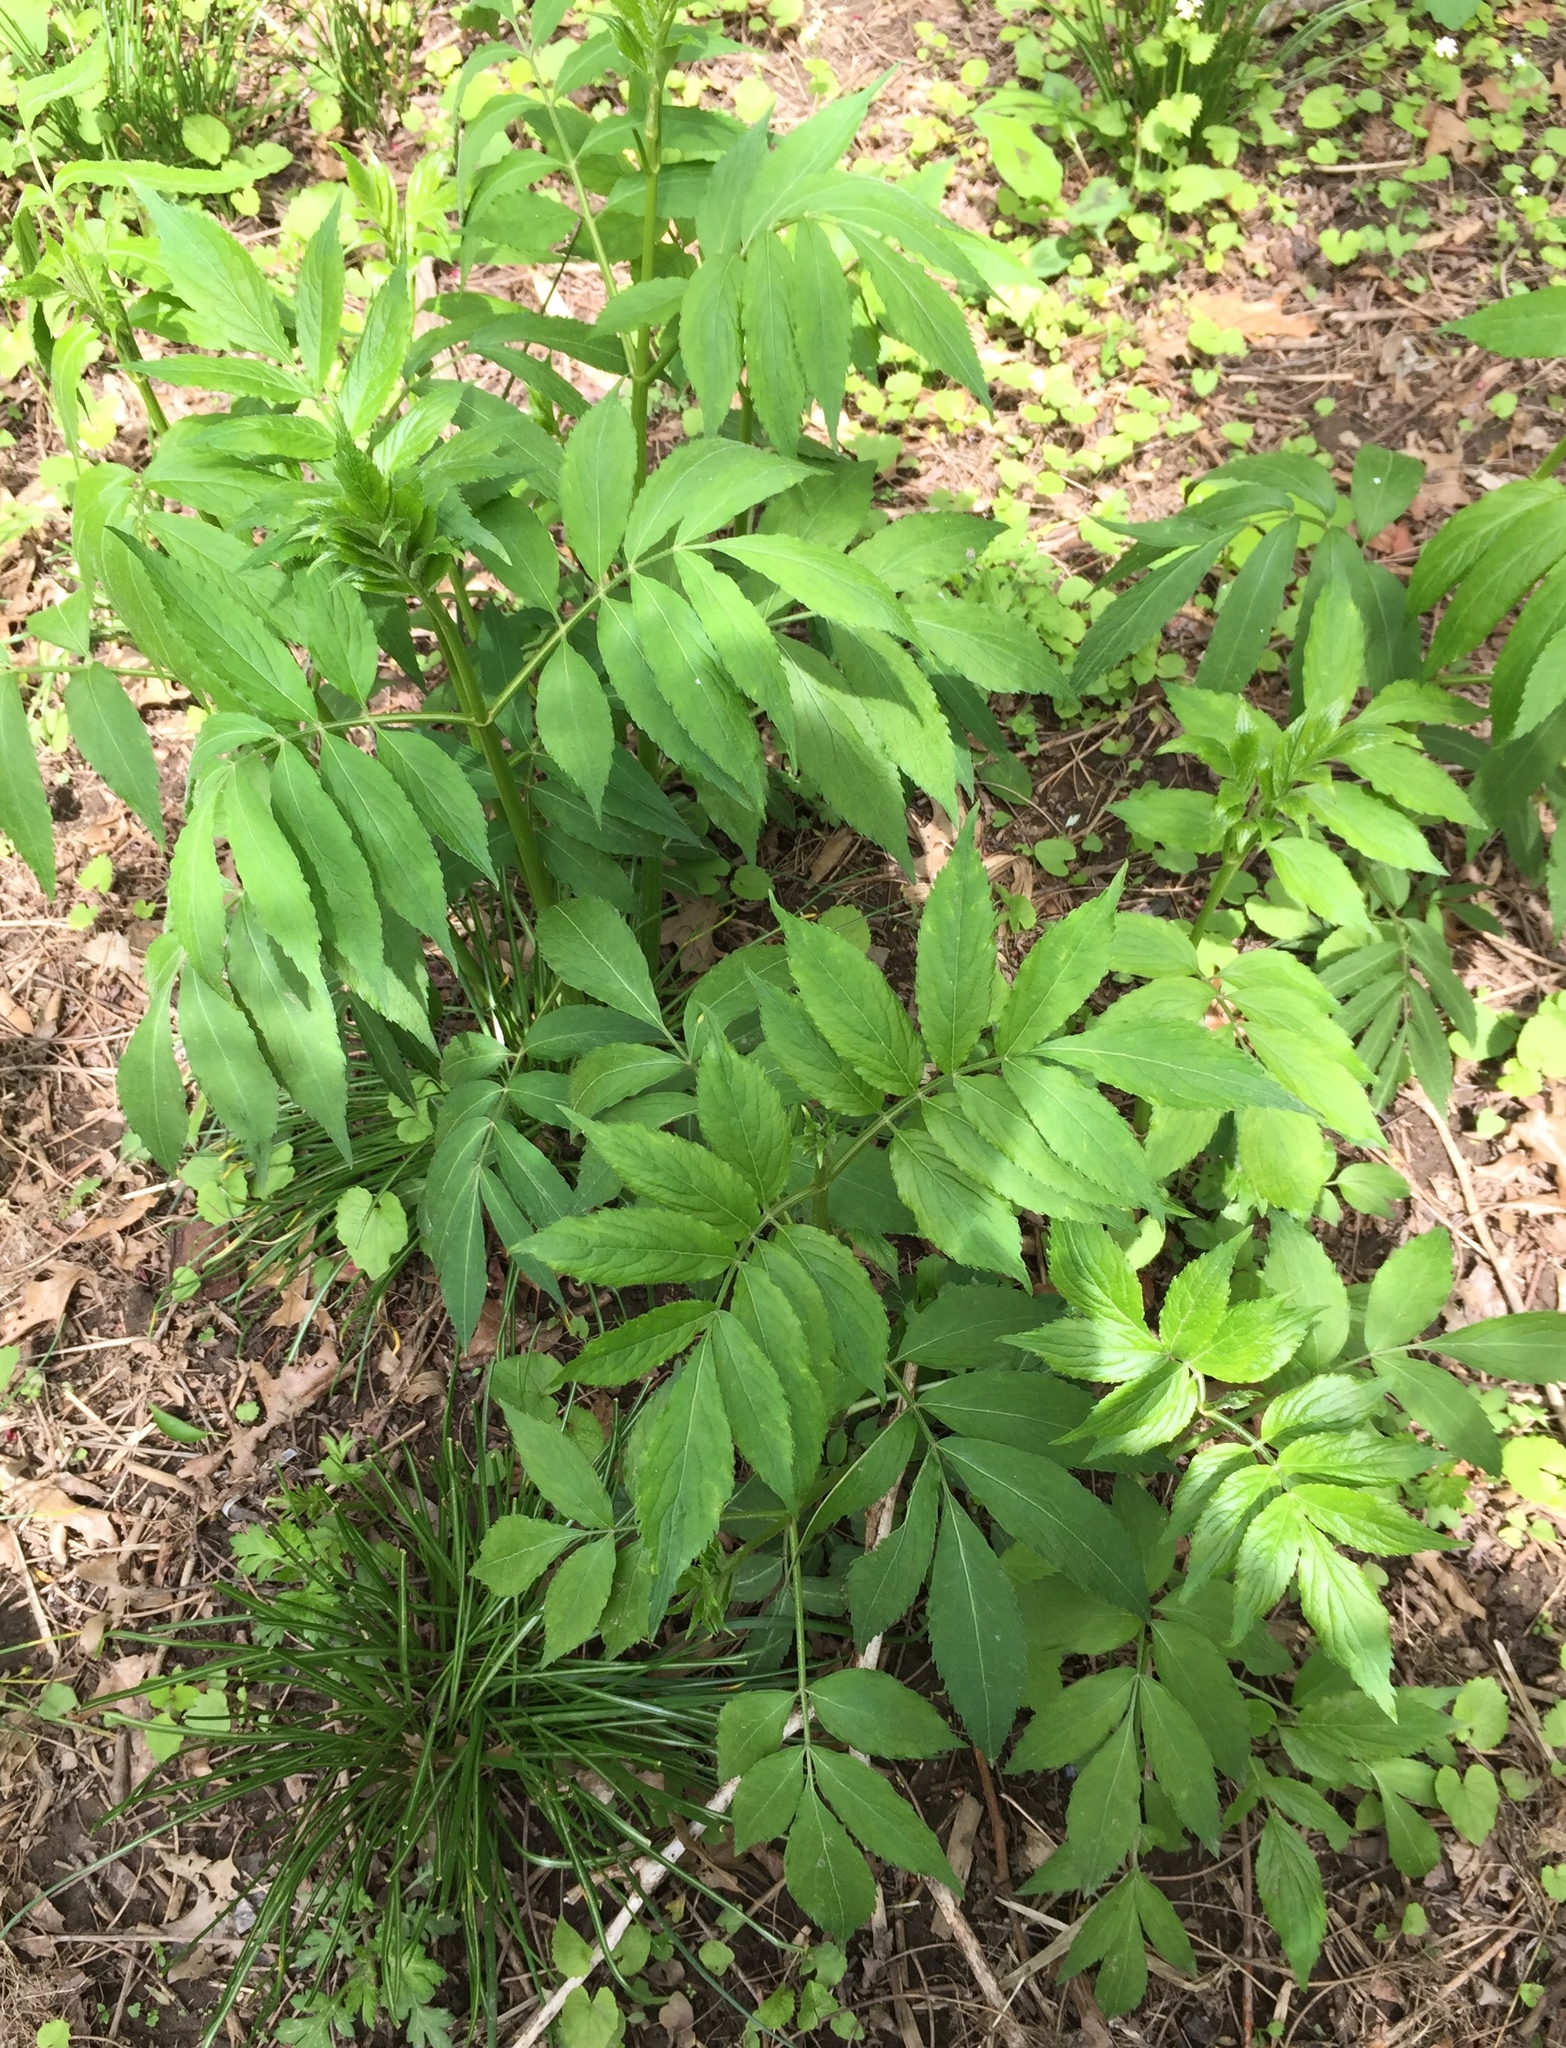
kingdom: Plantae
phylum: Tracheophyta
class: Magnoliopsida
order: Dipsacales
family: Viburnaceae
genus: Sambucus
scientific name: Sambucus canadensis
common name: American elder
